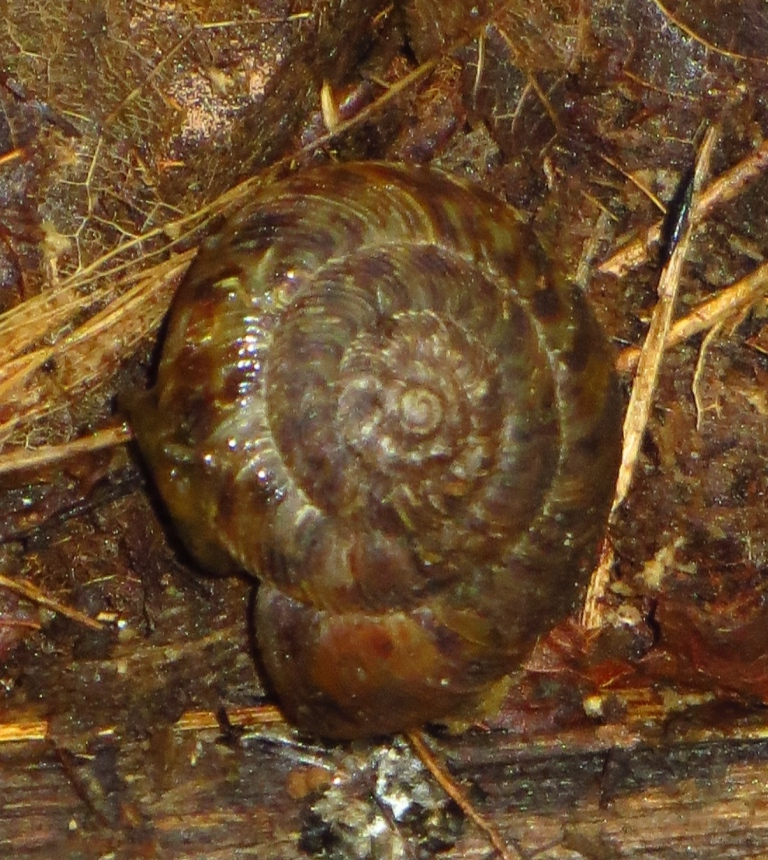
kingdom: Animalia
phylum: Mollusca
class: Gastropoda
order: Stylommatophora
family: Discidae
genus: Anguispira
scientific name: Anguispira alternata
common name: Flamed tigersnail
